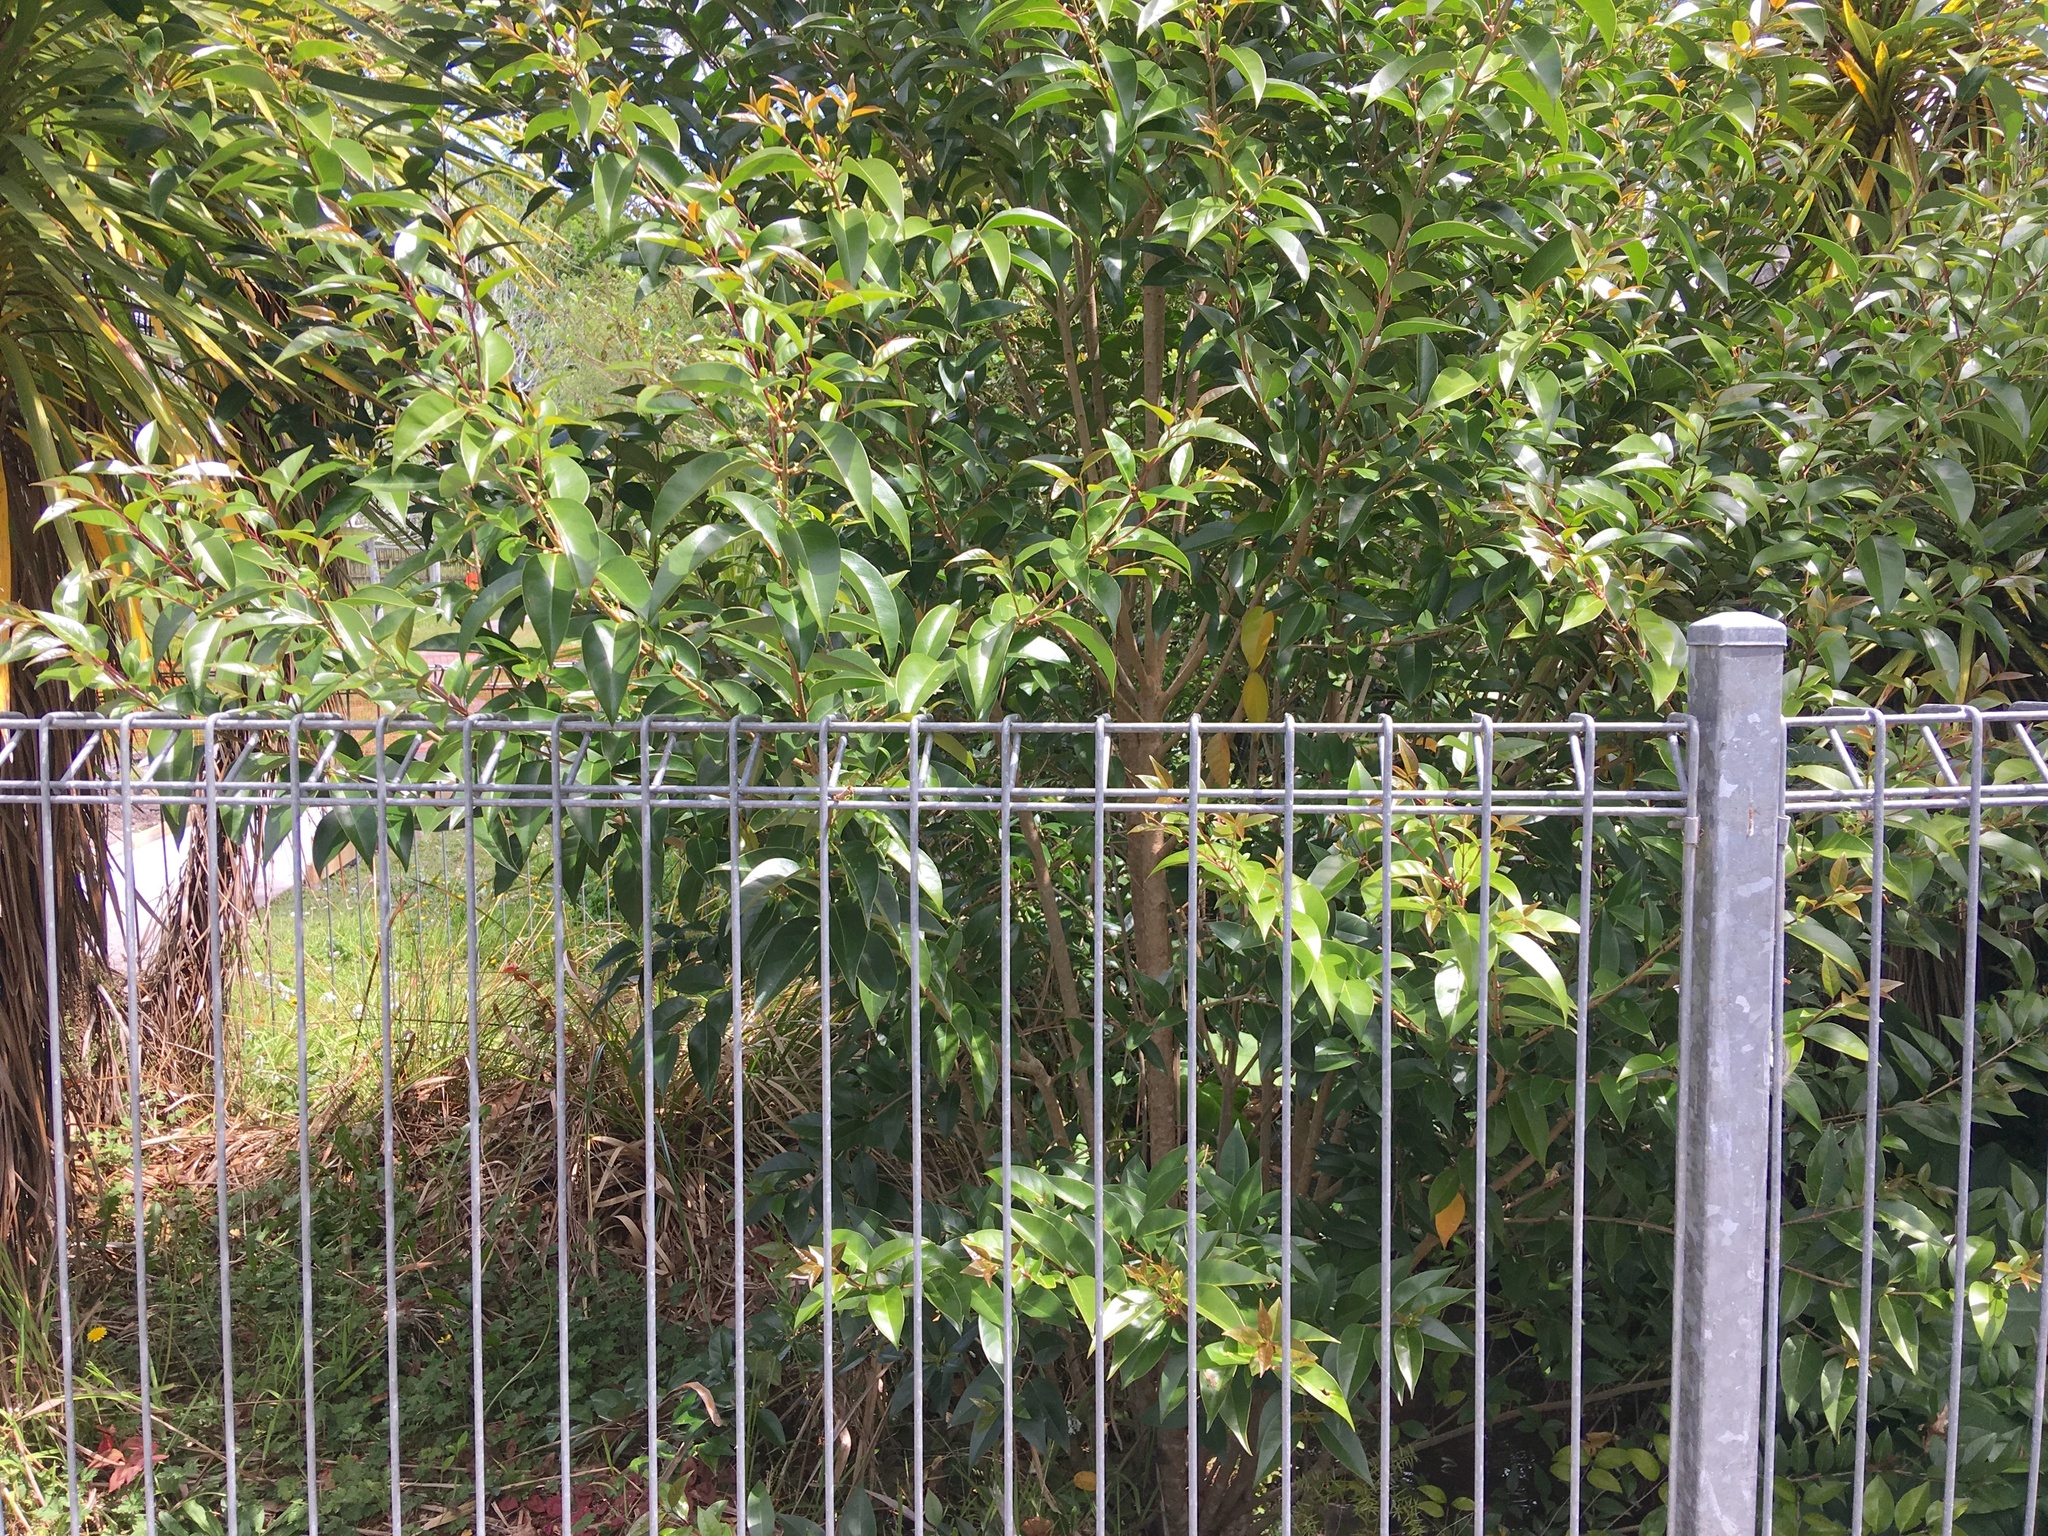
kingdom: Plantae
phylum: Tracheophyta
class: Magnoliopsida
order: Lamiales
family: Oleaceae
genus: Ligustrum
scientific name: Ligustrum lucidum
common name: Glossy privet
